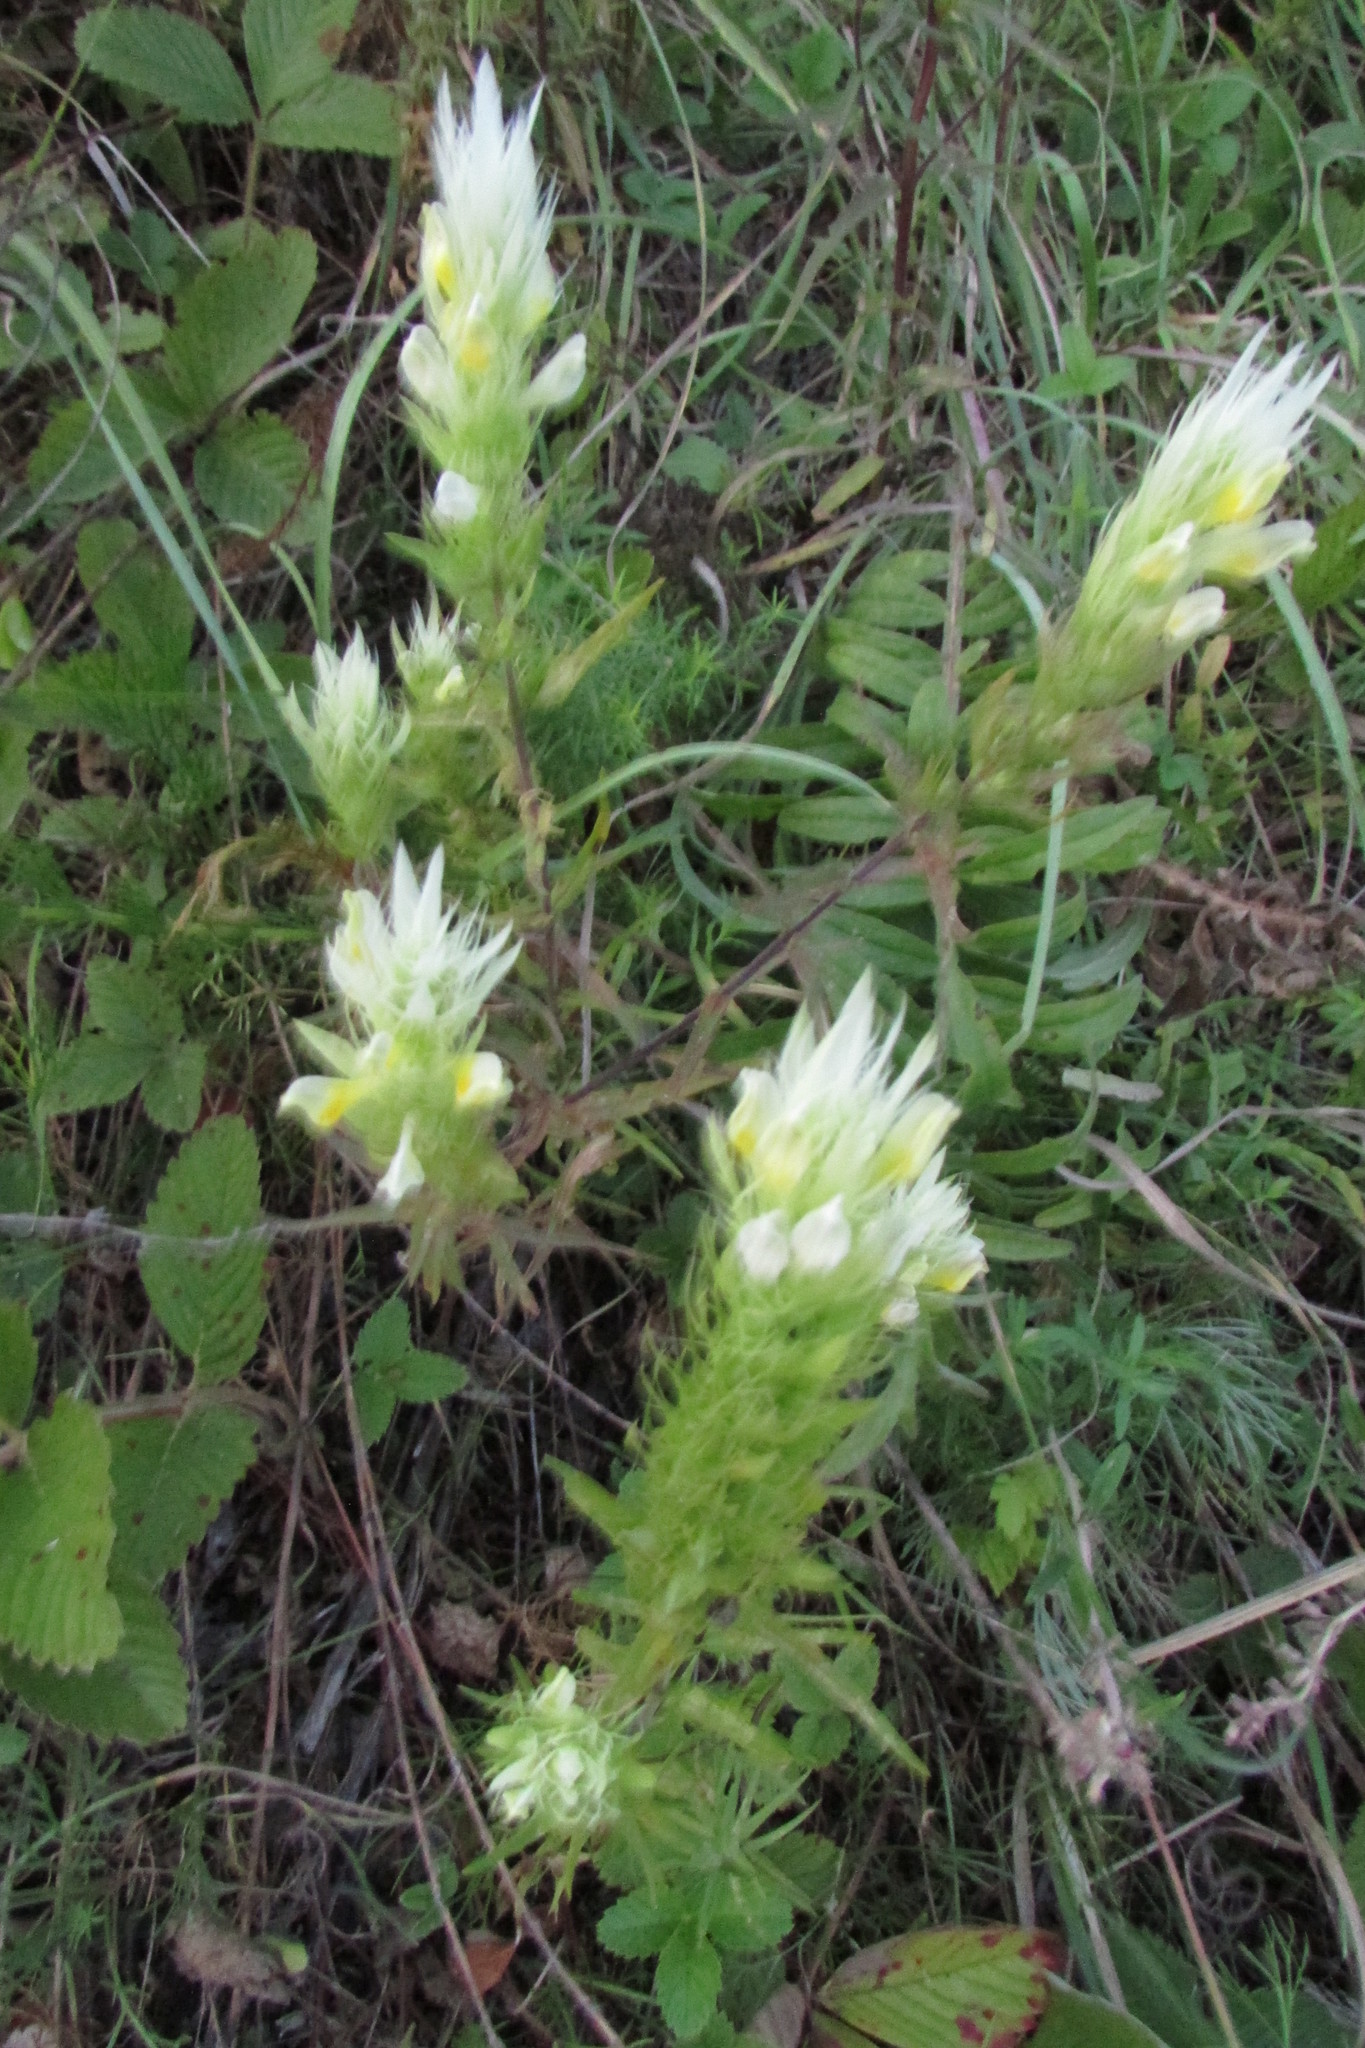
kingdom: Plantae
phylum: Tracheophyta
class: Magnoliopsida
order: Lamiales
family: Orobanchaceae
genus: Melampyrum
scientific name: Melampyrum arvense
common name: Field cow-wheat
